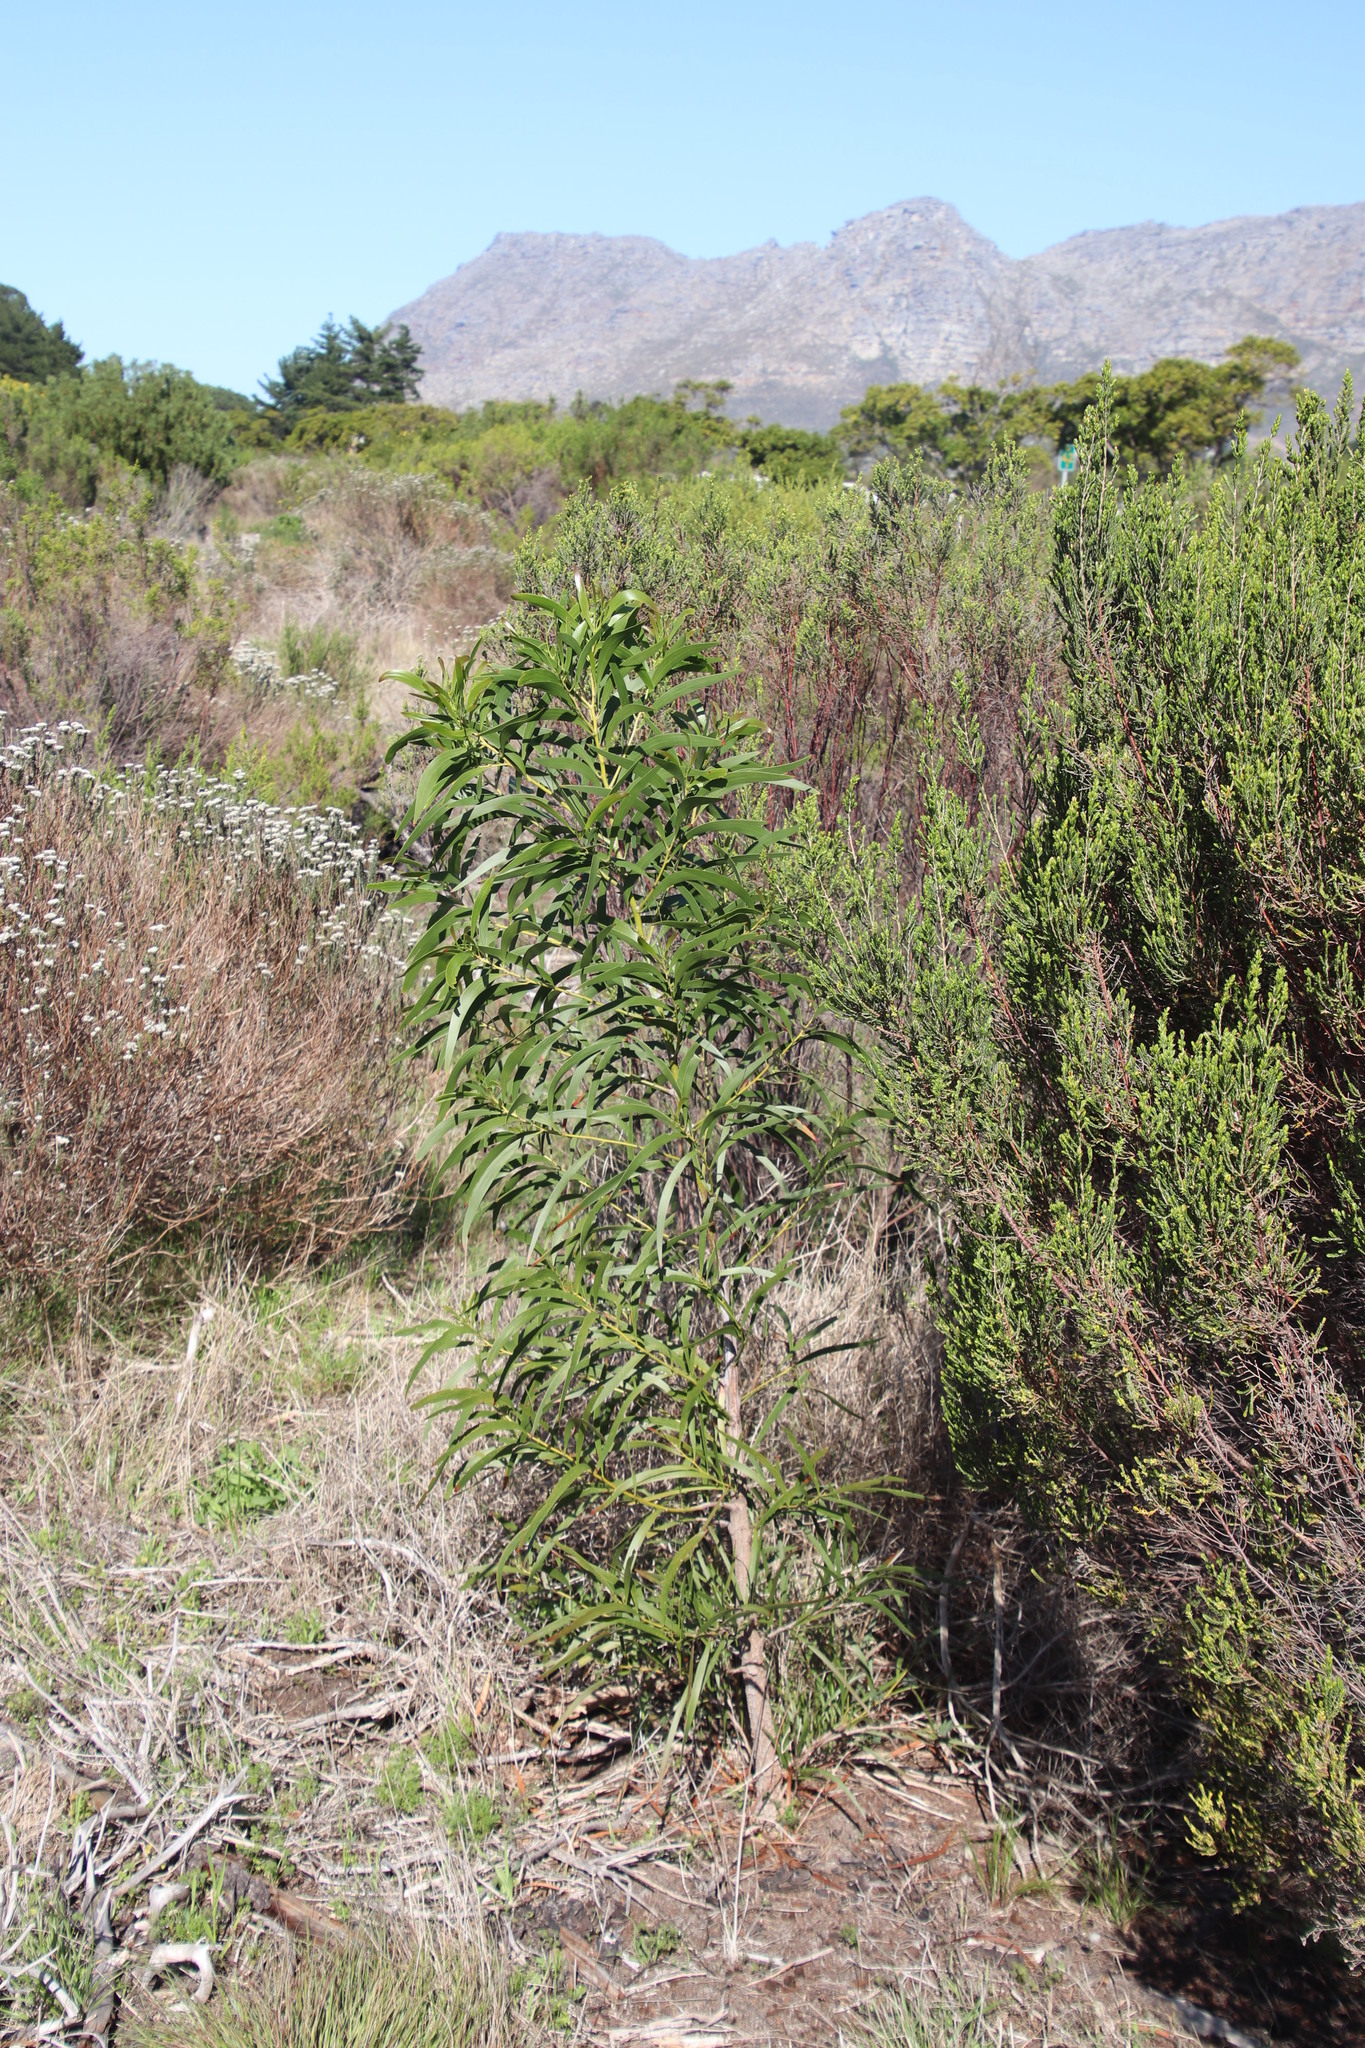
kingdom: Plantae
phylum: Tracheophyta
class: Magnoliopsida
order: Fabales
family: Fabaceae
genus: Acacia
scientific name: Acacia implexa
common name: Black wattle
